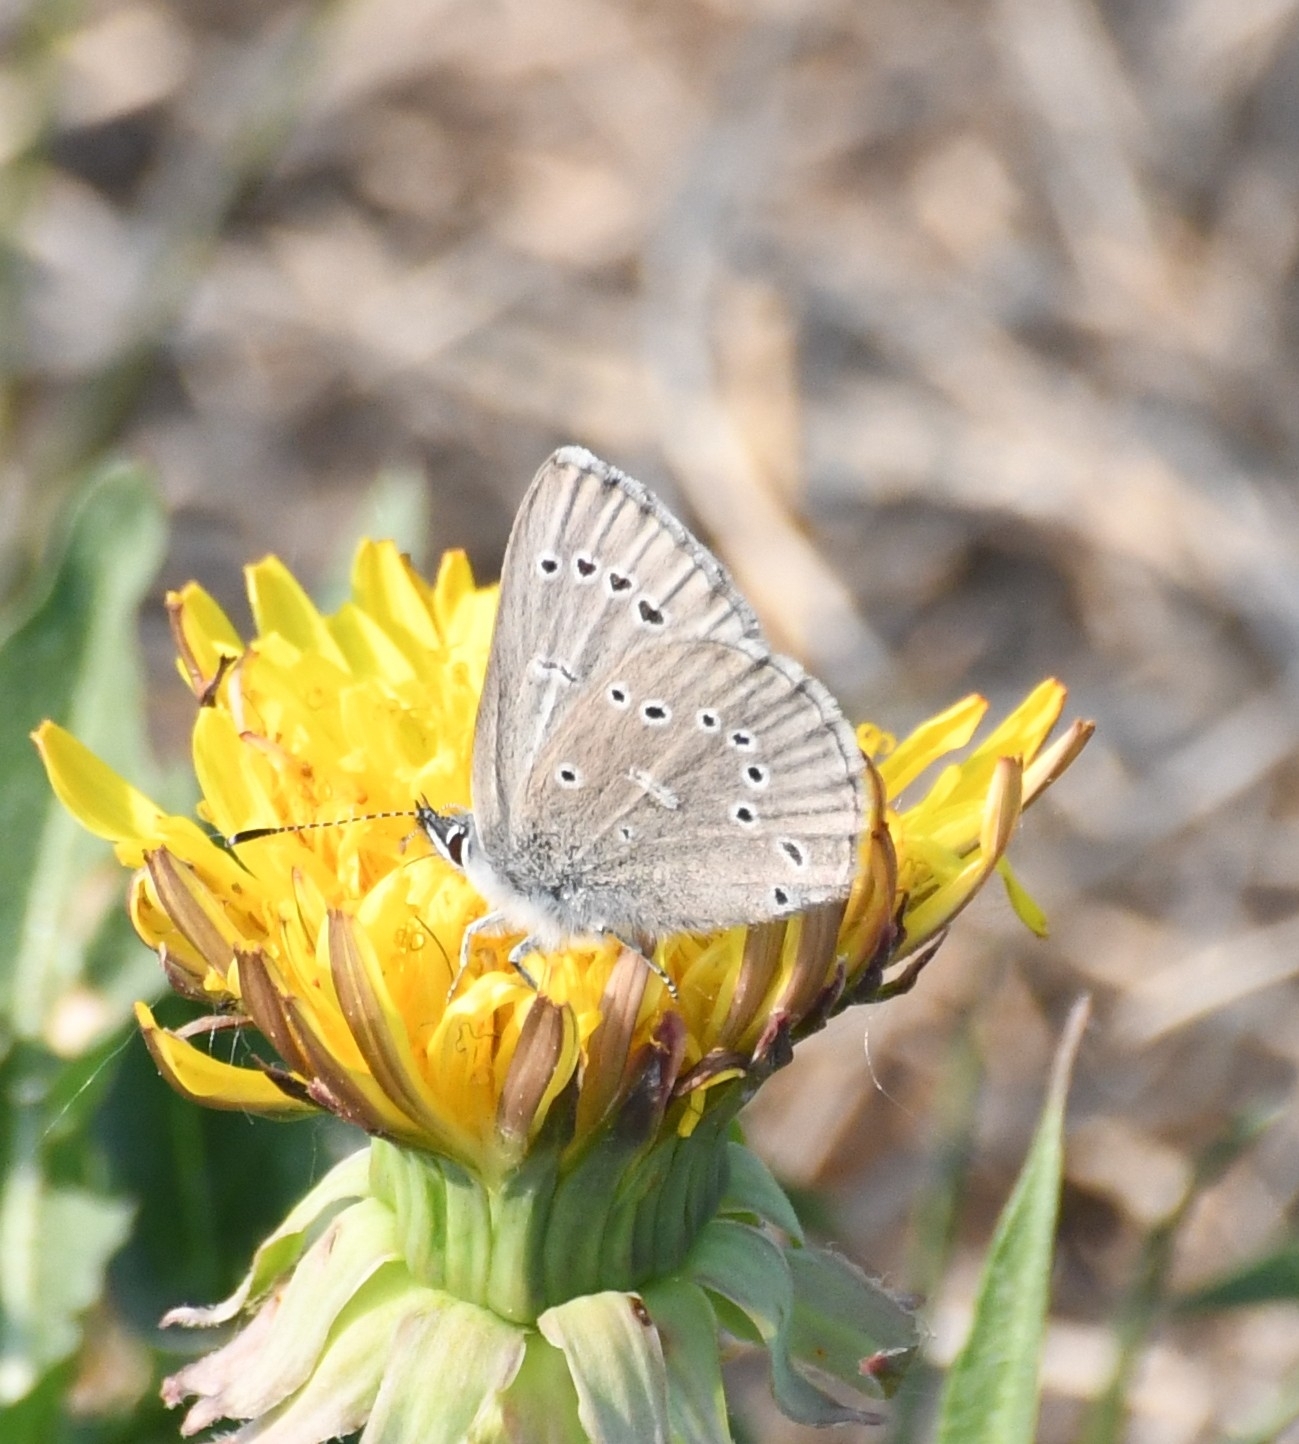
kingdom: Animalia
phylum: Arthropoda
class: Insecta
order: Lepidoptera
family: Lycaenidae
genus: Glaucopsyche
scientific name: Glaucopsyche lygdamus
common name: Silvery blue
